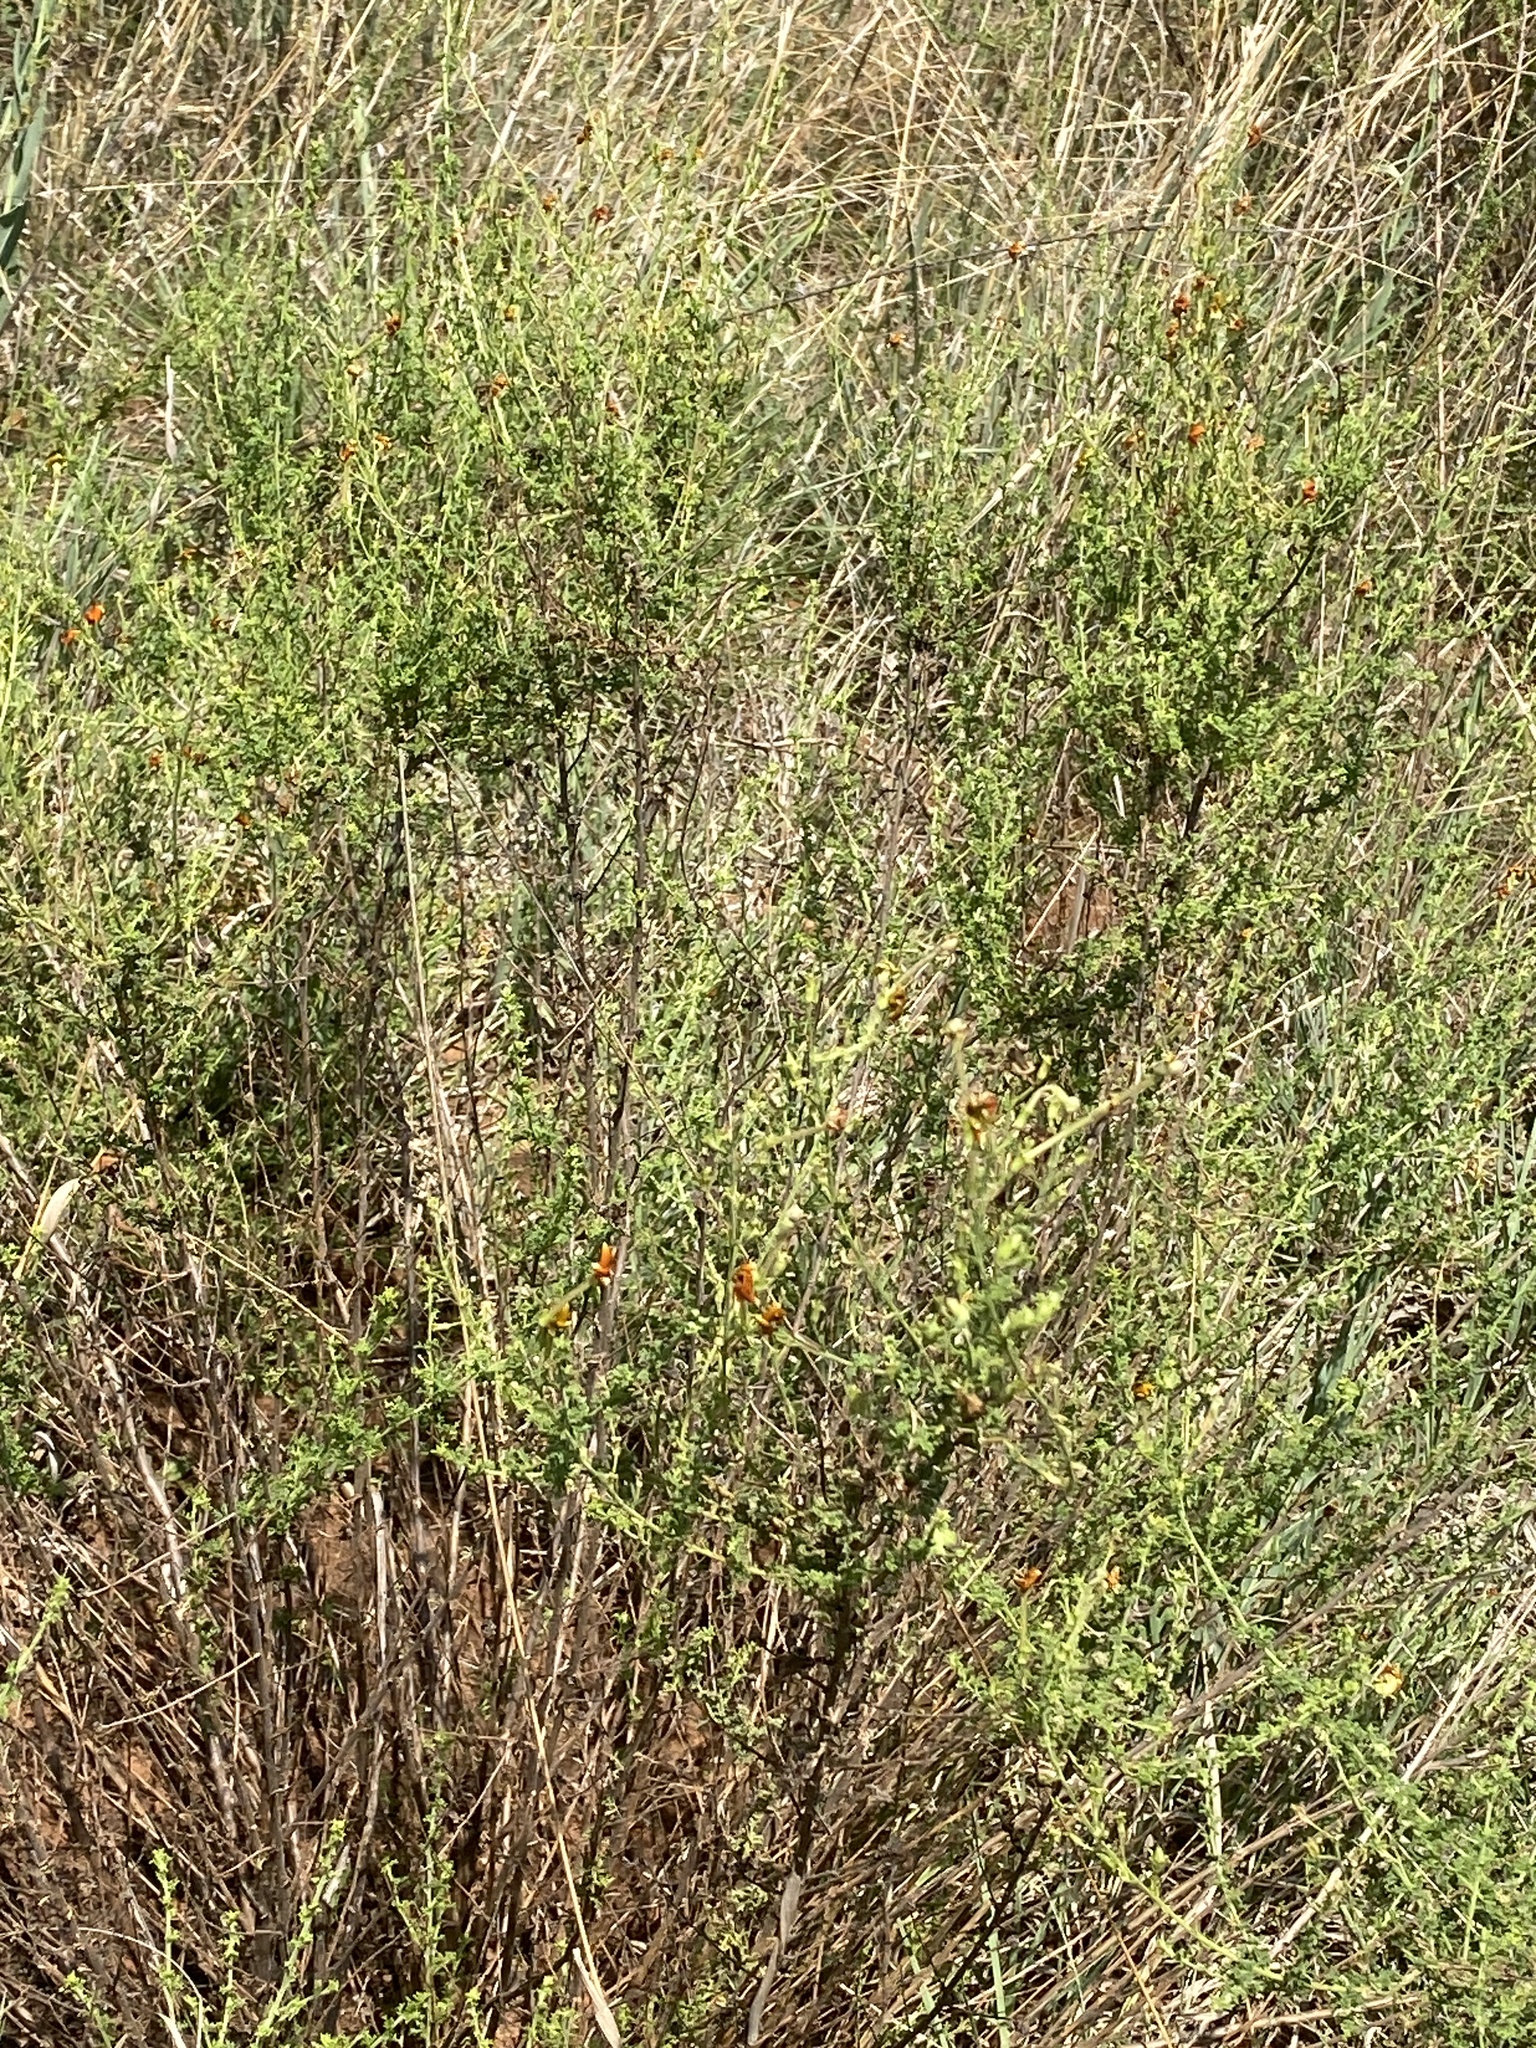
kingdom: Plantae
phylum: Tracheophyta
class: Magnoliopsida
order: Lamiales
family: Scrophulariaceae
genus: Jamesbrittenia
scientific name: Jamesbrittenia burkeana
